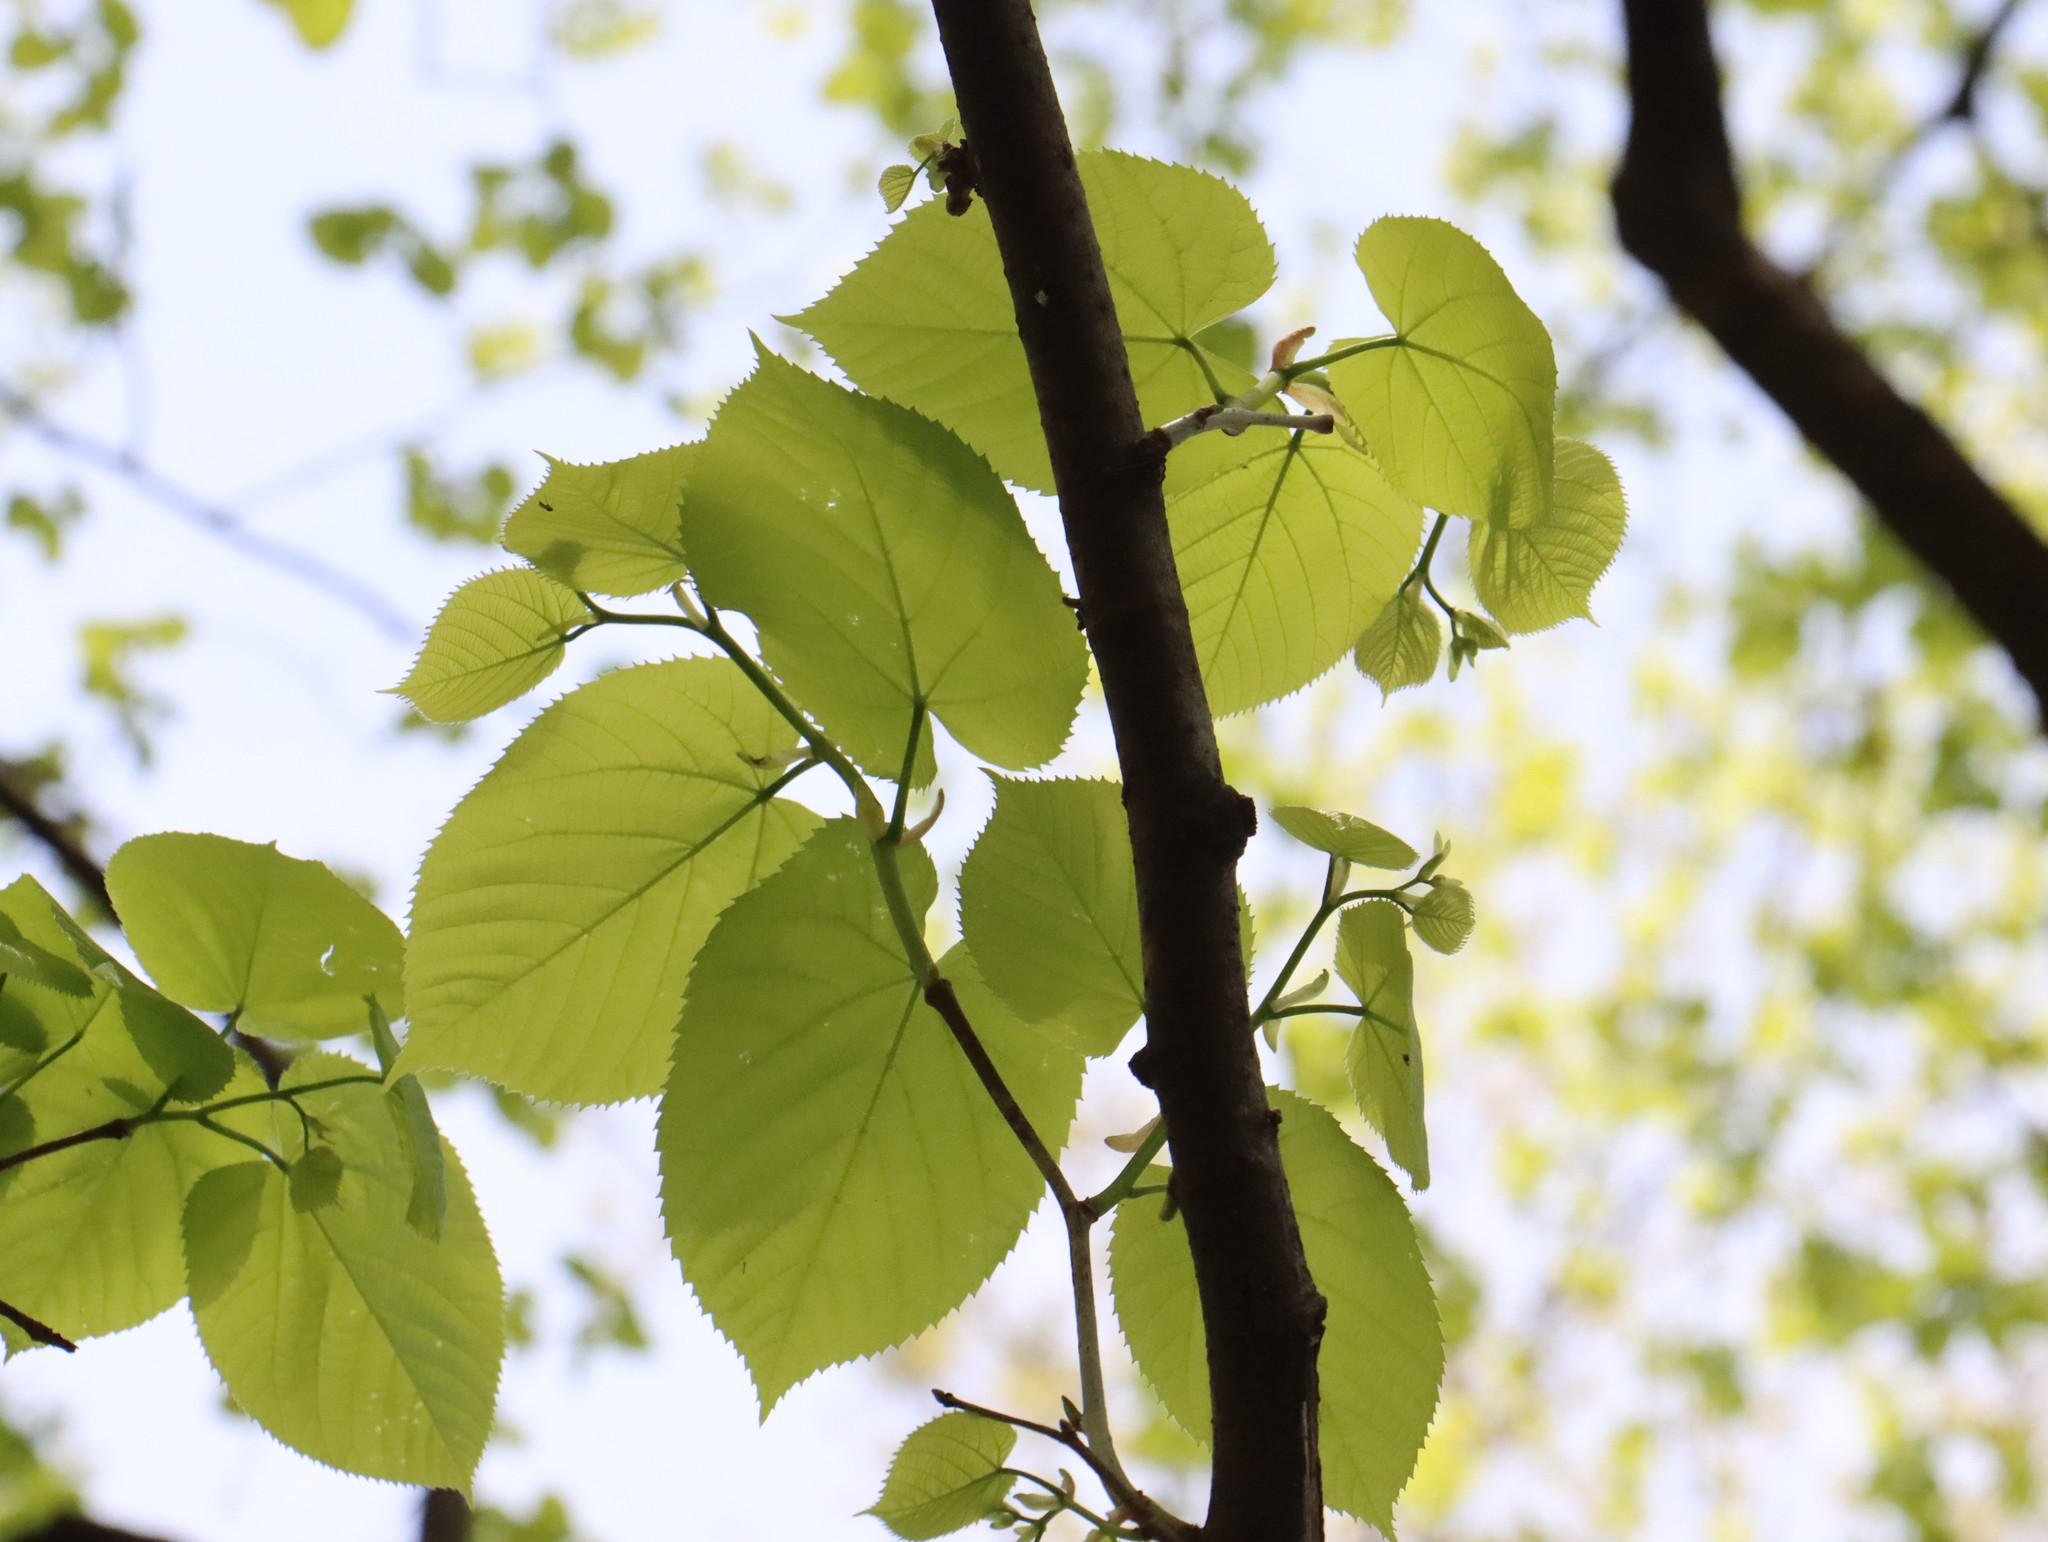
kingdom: Plantae
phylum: Tracheophyta
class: Magnoliopsida
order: Malvales
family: Malvaceae
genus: Tilia
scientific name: Tilia americana
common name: Basswood
